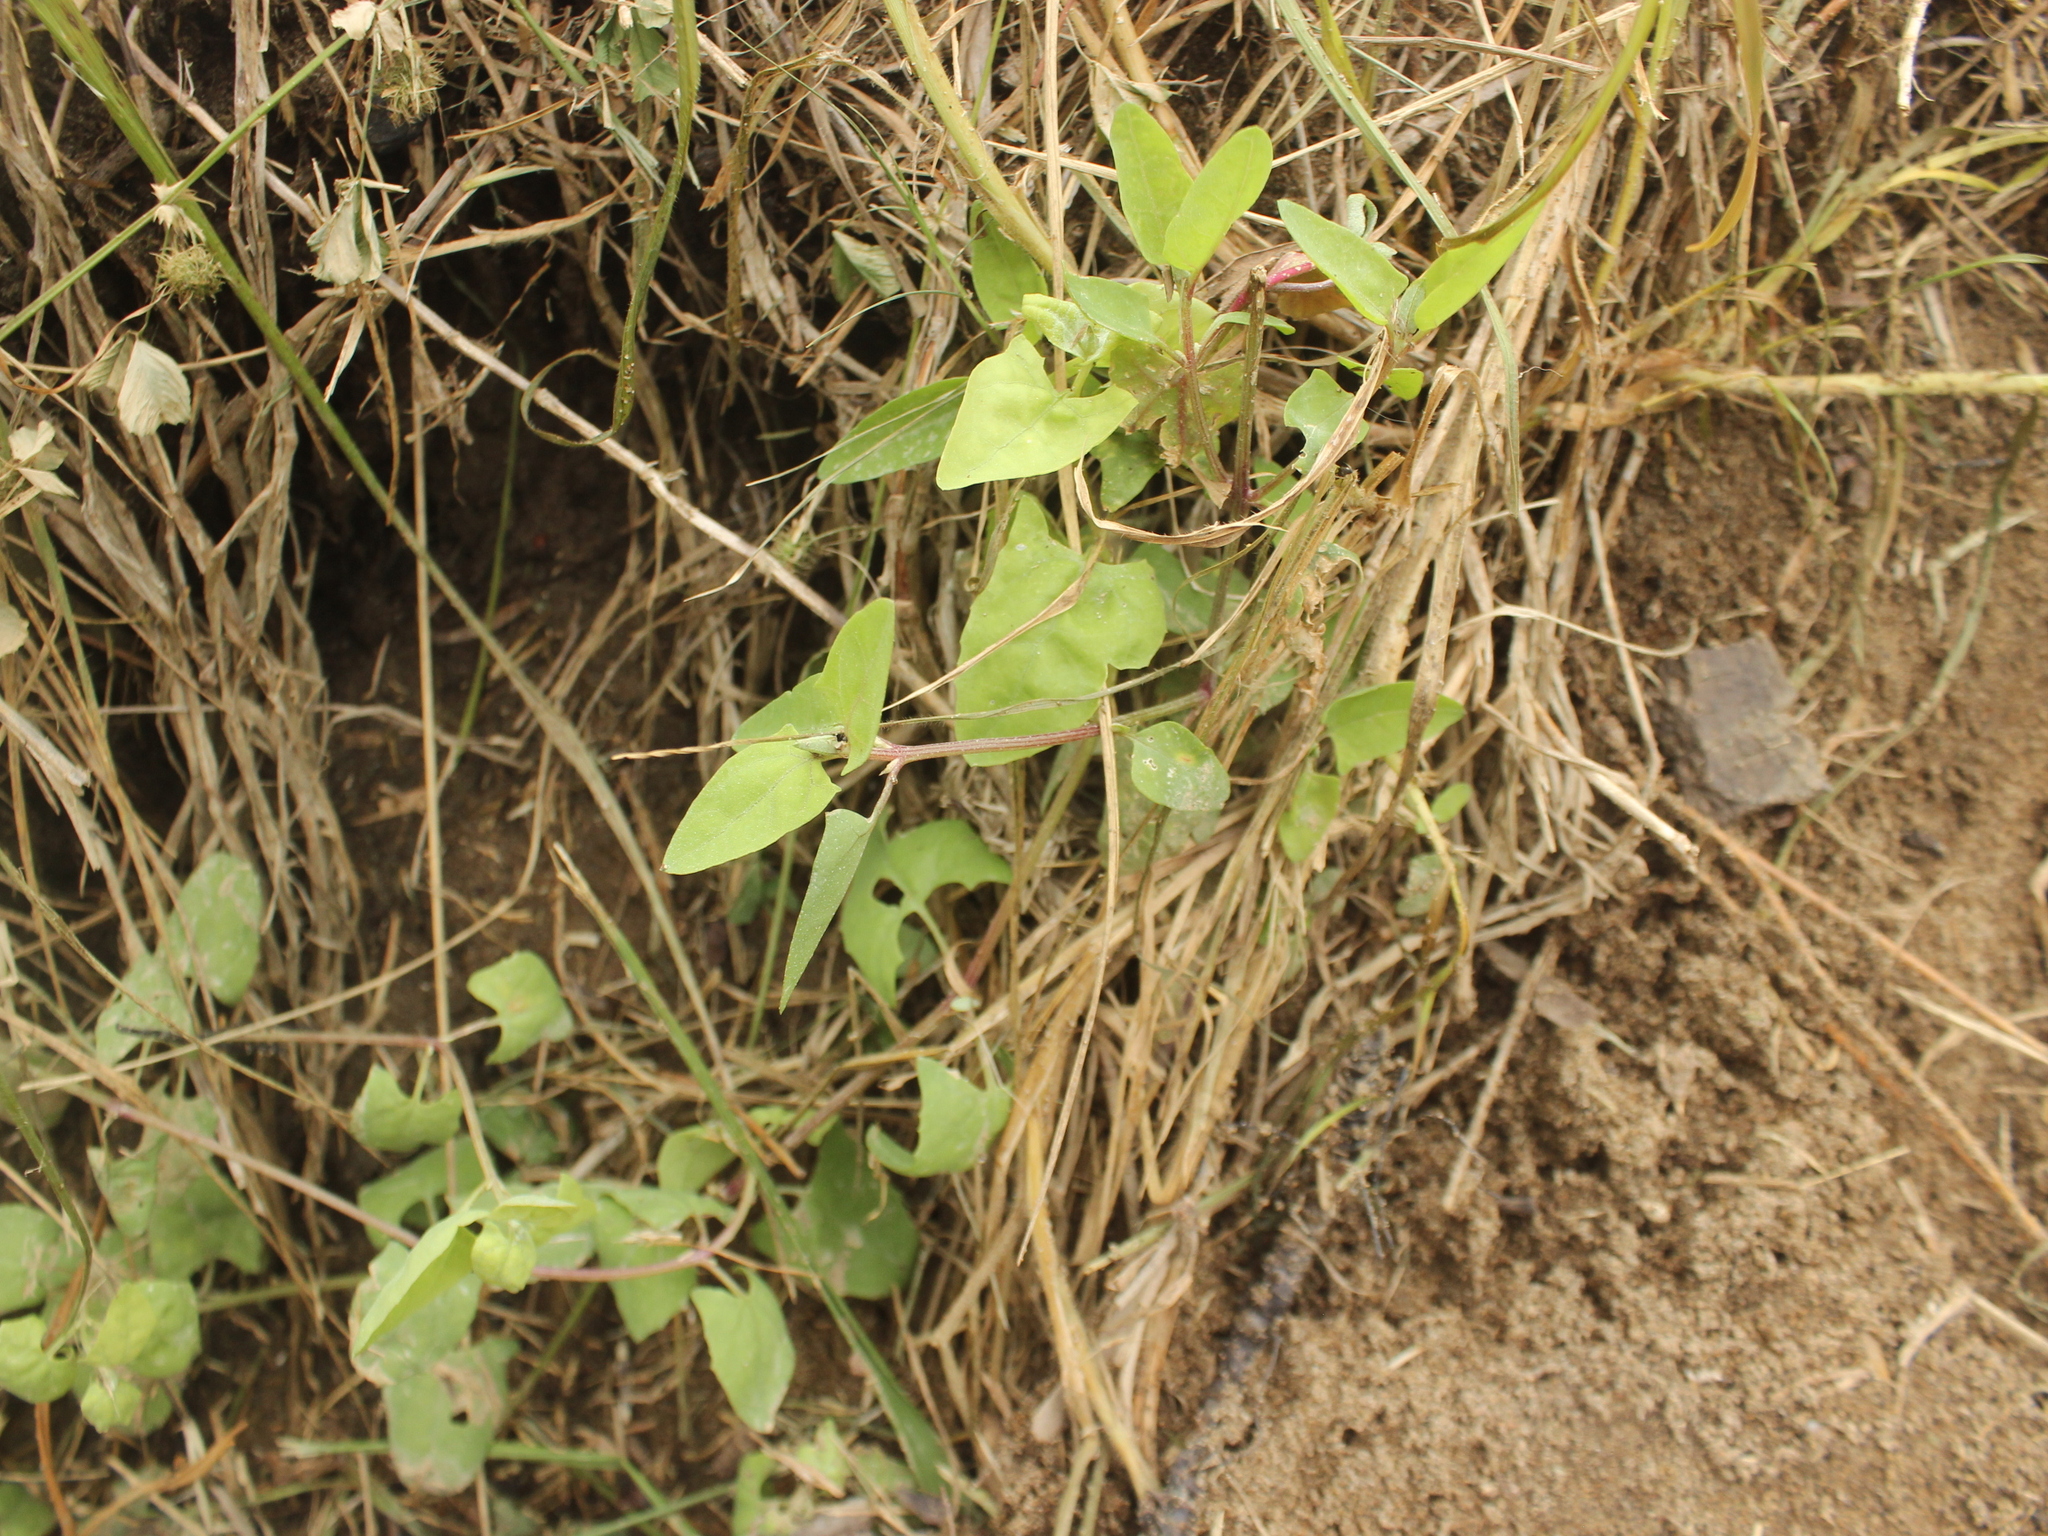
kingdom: Plantae
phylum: Tracheophyta
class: Magnoliopsida
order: Caryophyllales
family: Amaranthaceae
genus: Atriplex
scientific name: Atriplex prostrata
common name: Spear-leaved orache
